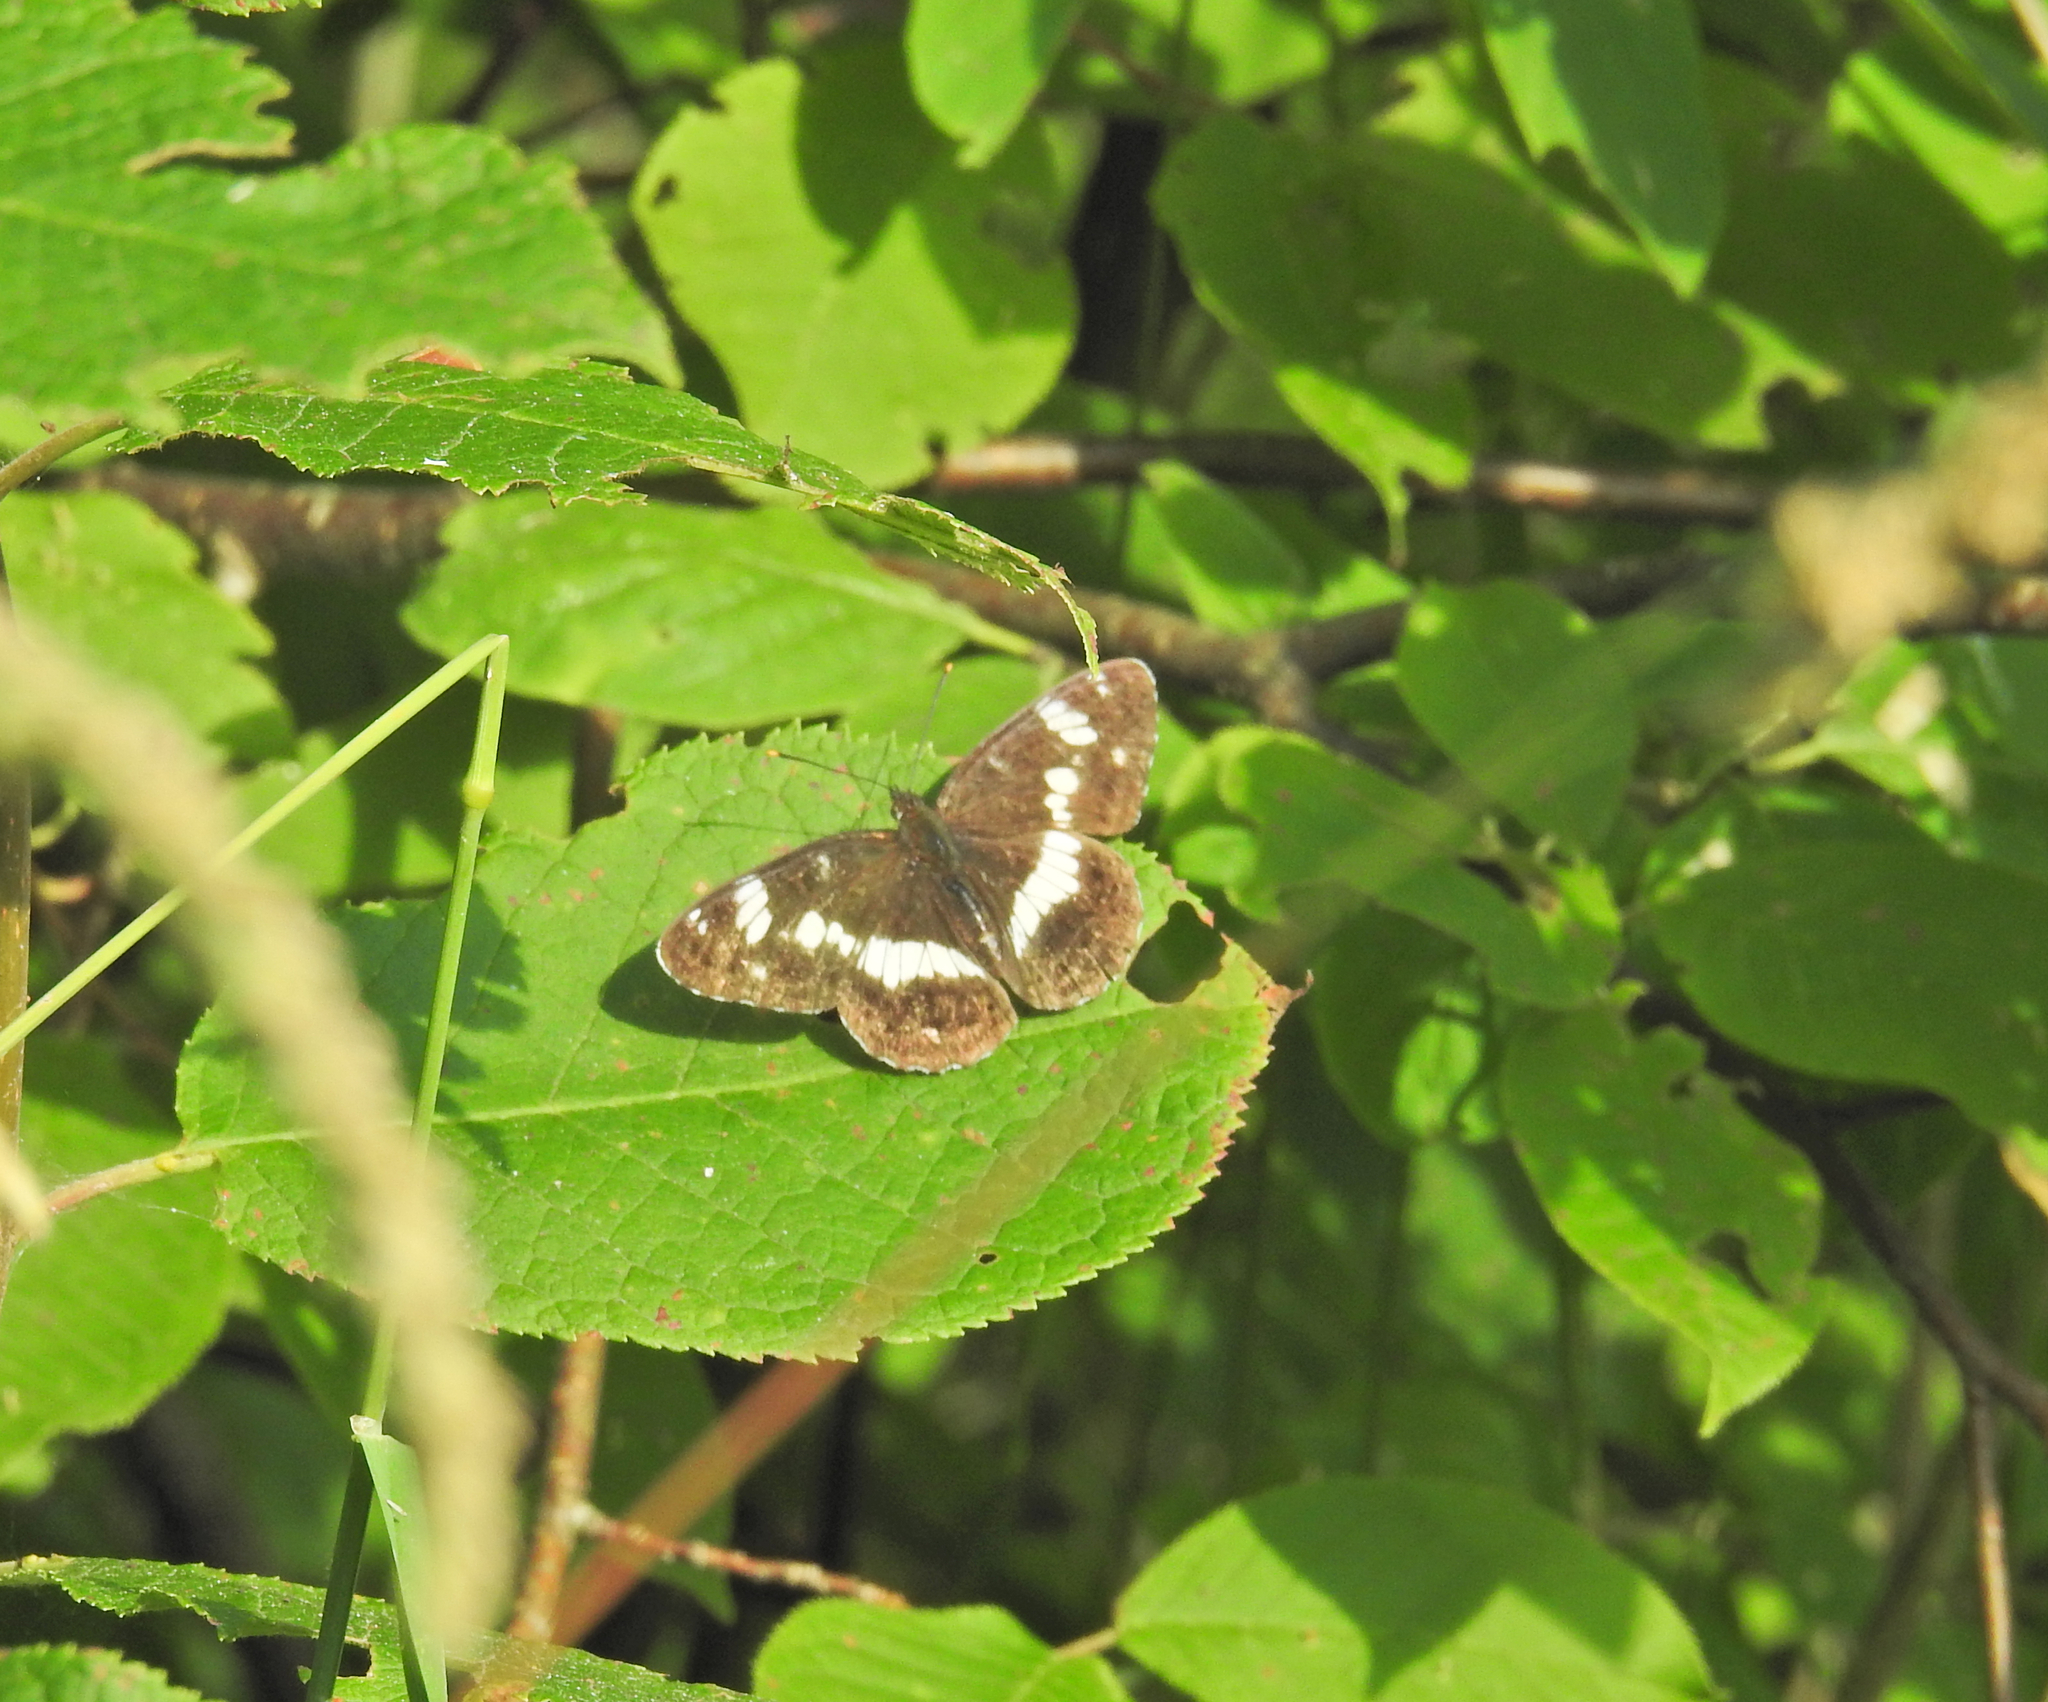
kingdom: Animalia
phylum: Arthropoda
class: Insecta
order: Lepidoptera
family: Nymphalidae
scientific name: Nymphalidae
